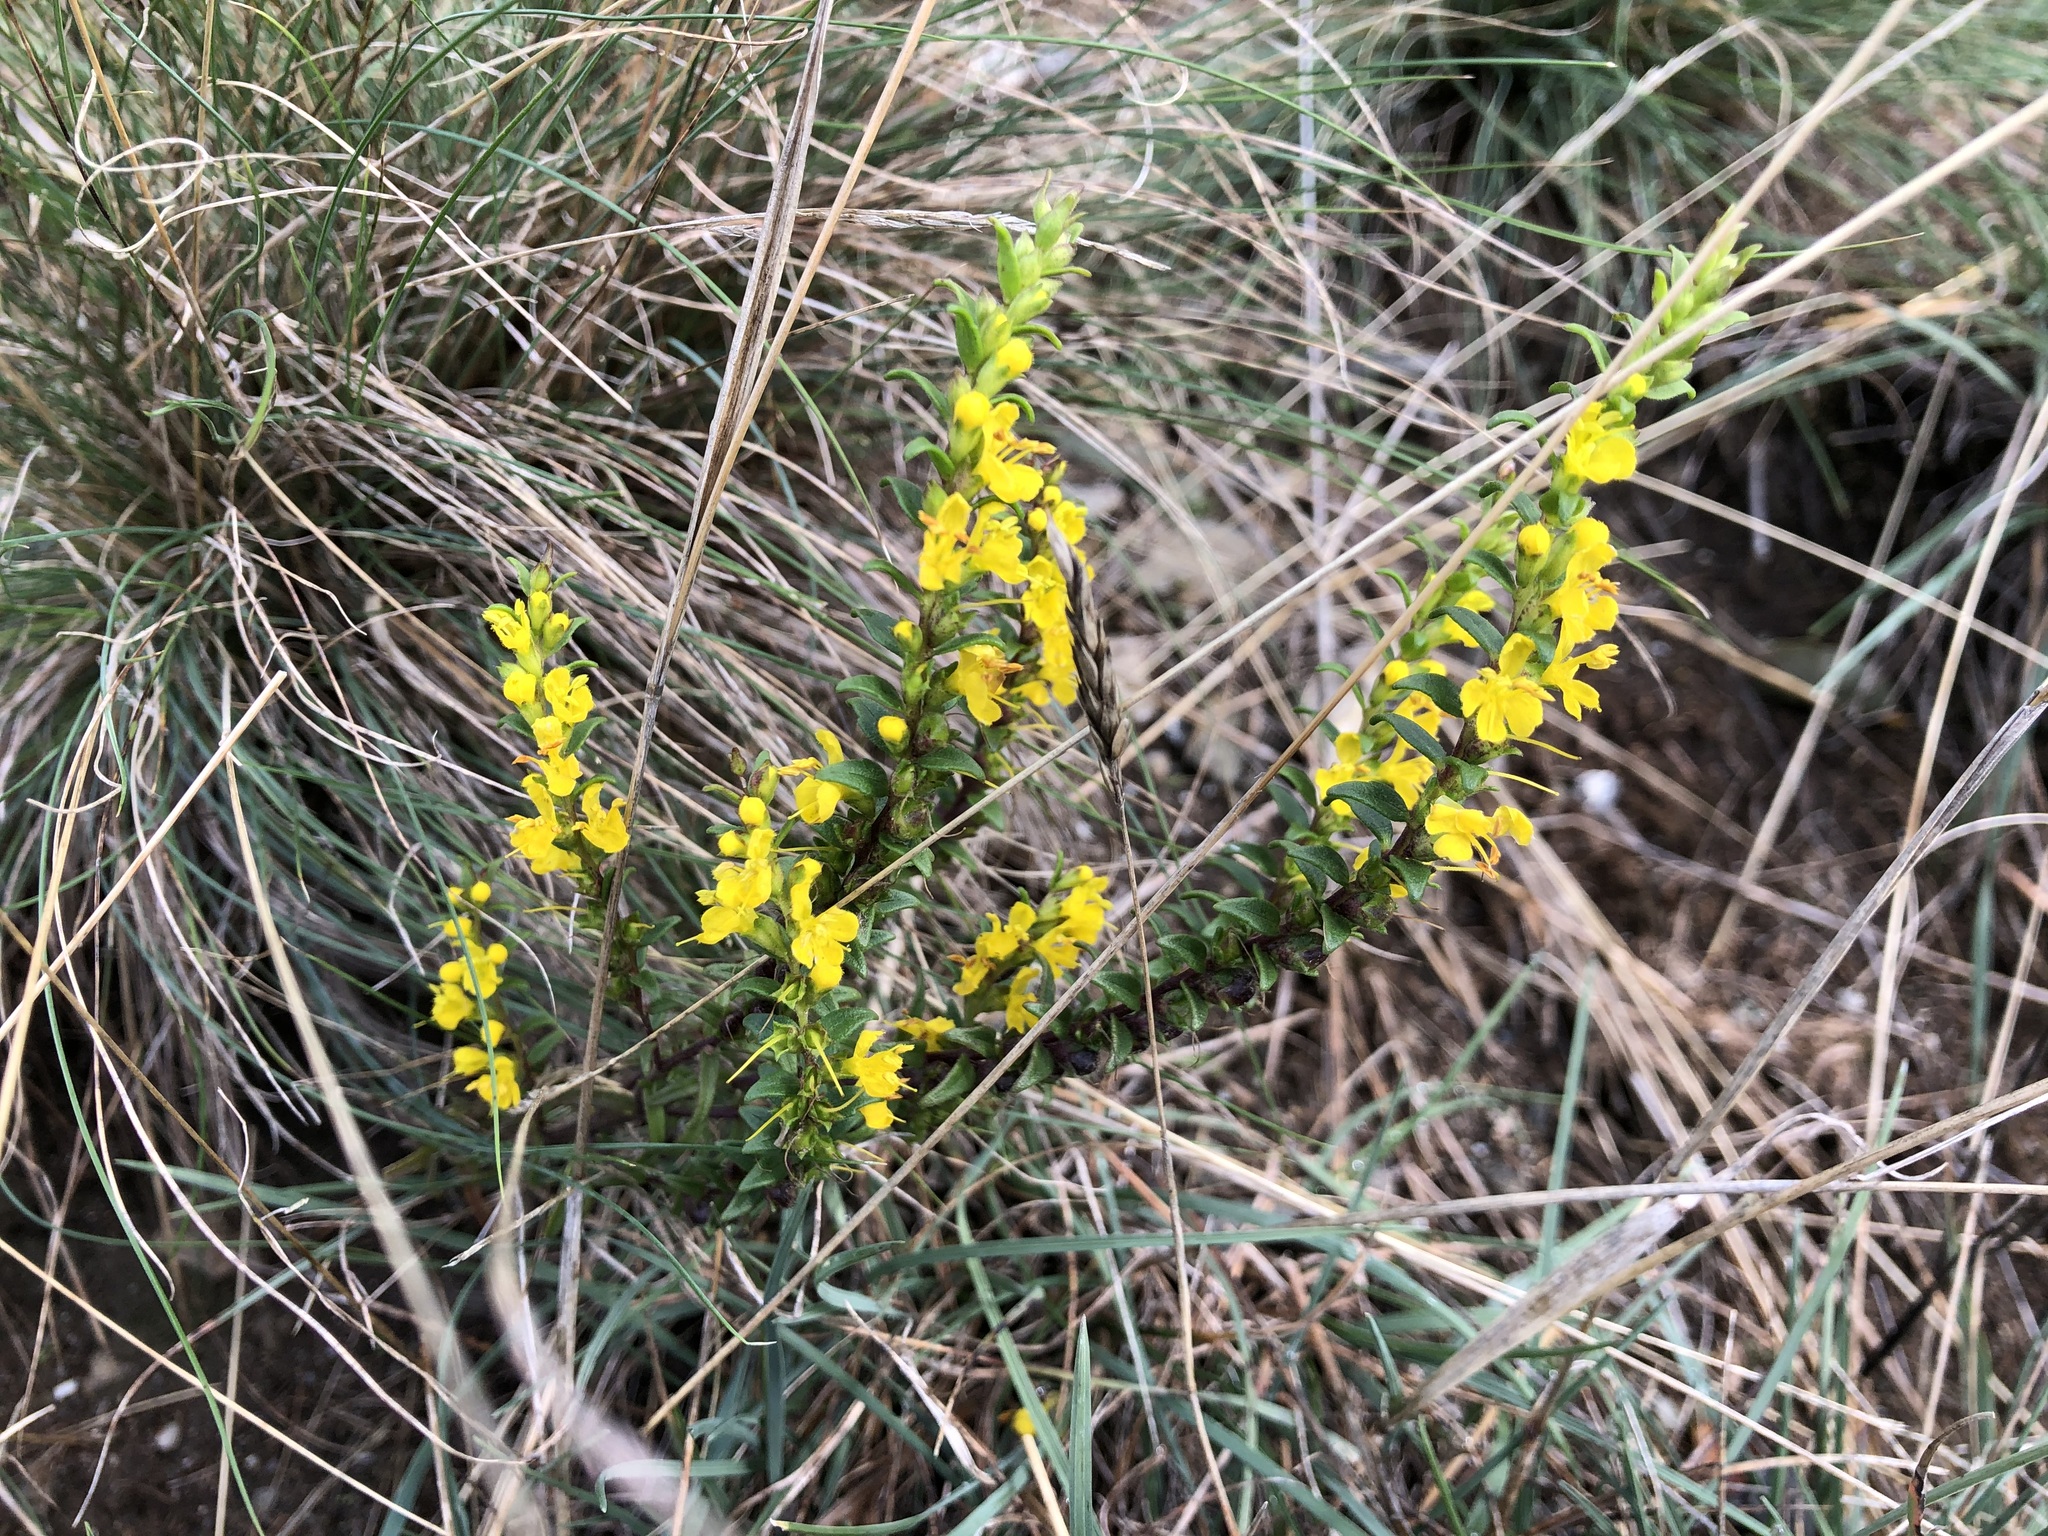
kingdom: Plantae
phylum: Tracheophyta
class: Magnoliopsida
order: Lamiales
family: Orobanchaceae
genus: Odontites
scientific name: Odontites luteus
